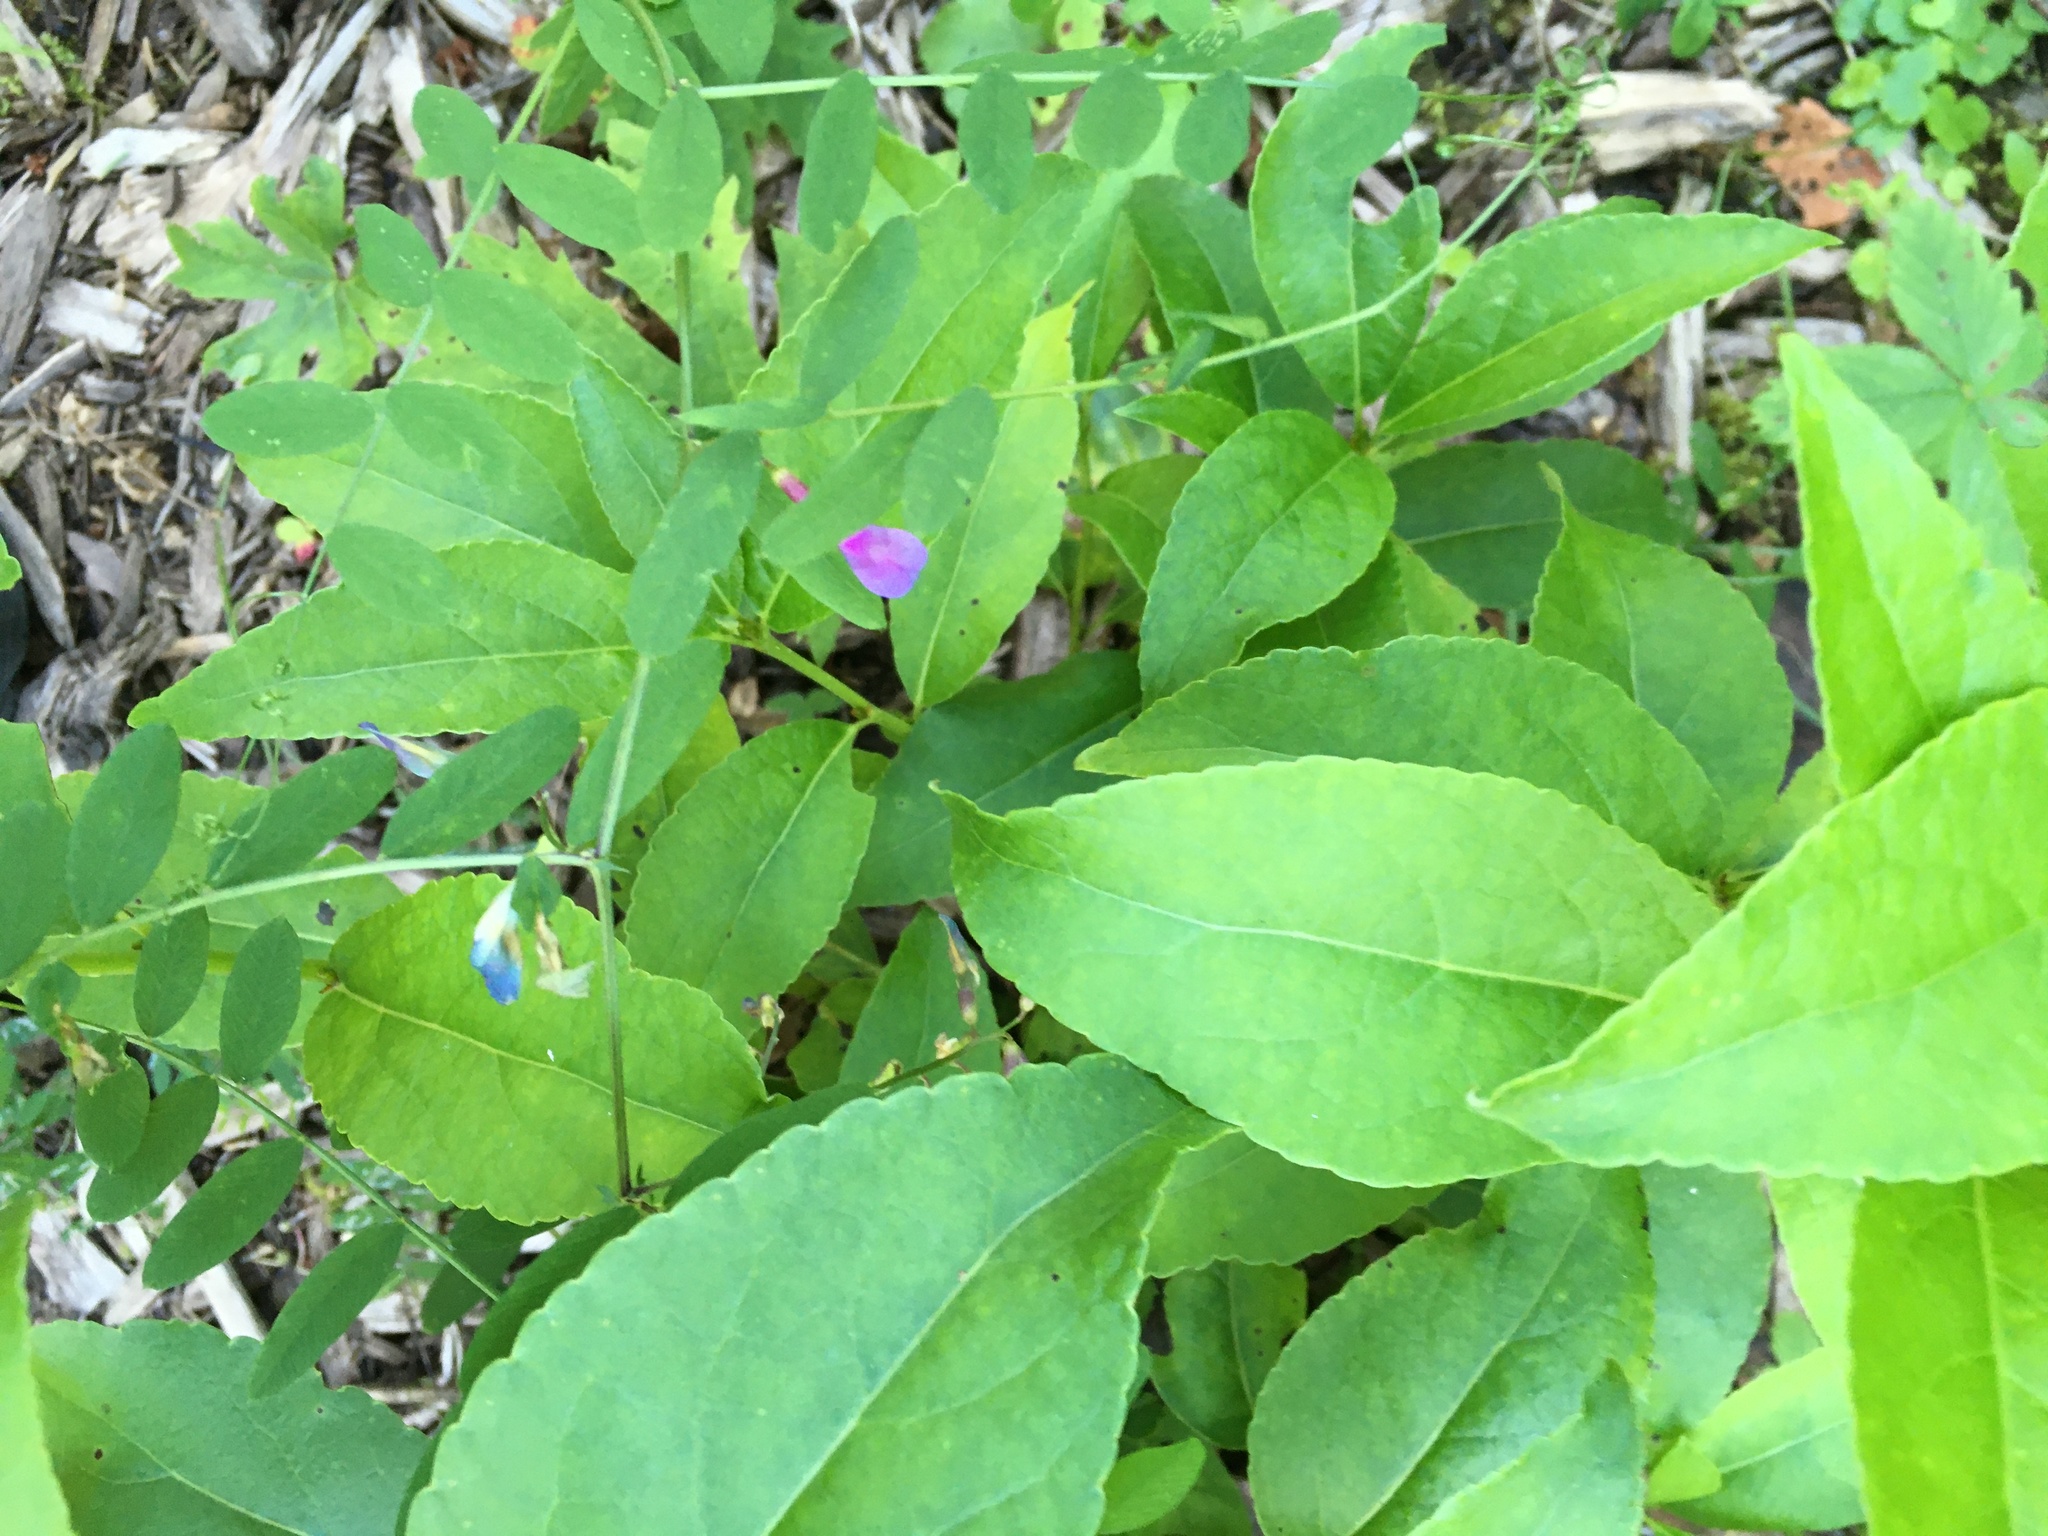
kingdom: Plantae
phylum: Tracheophyta
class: Magnoliopsida
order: Fabales
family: Fabaceae
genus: Vicia
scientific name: Vicia americana
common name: American vetch
